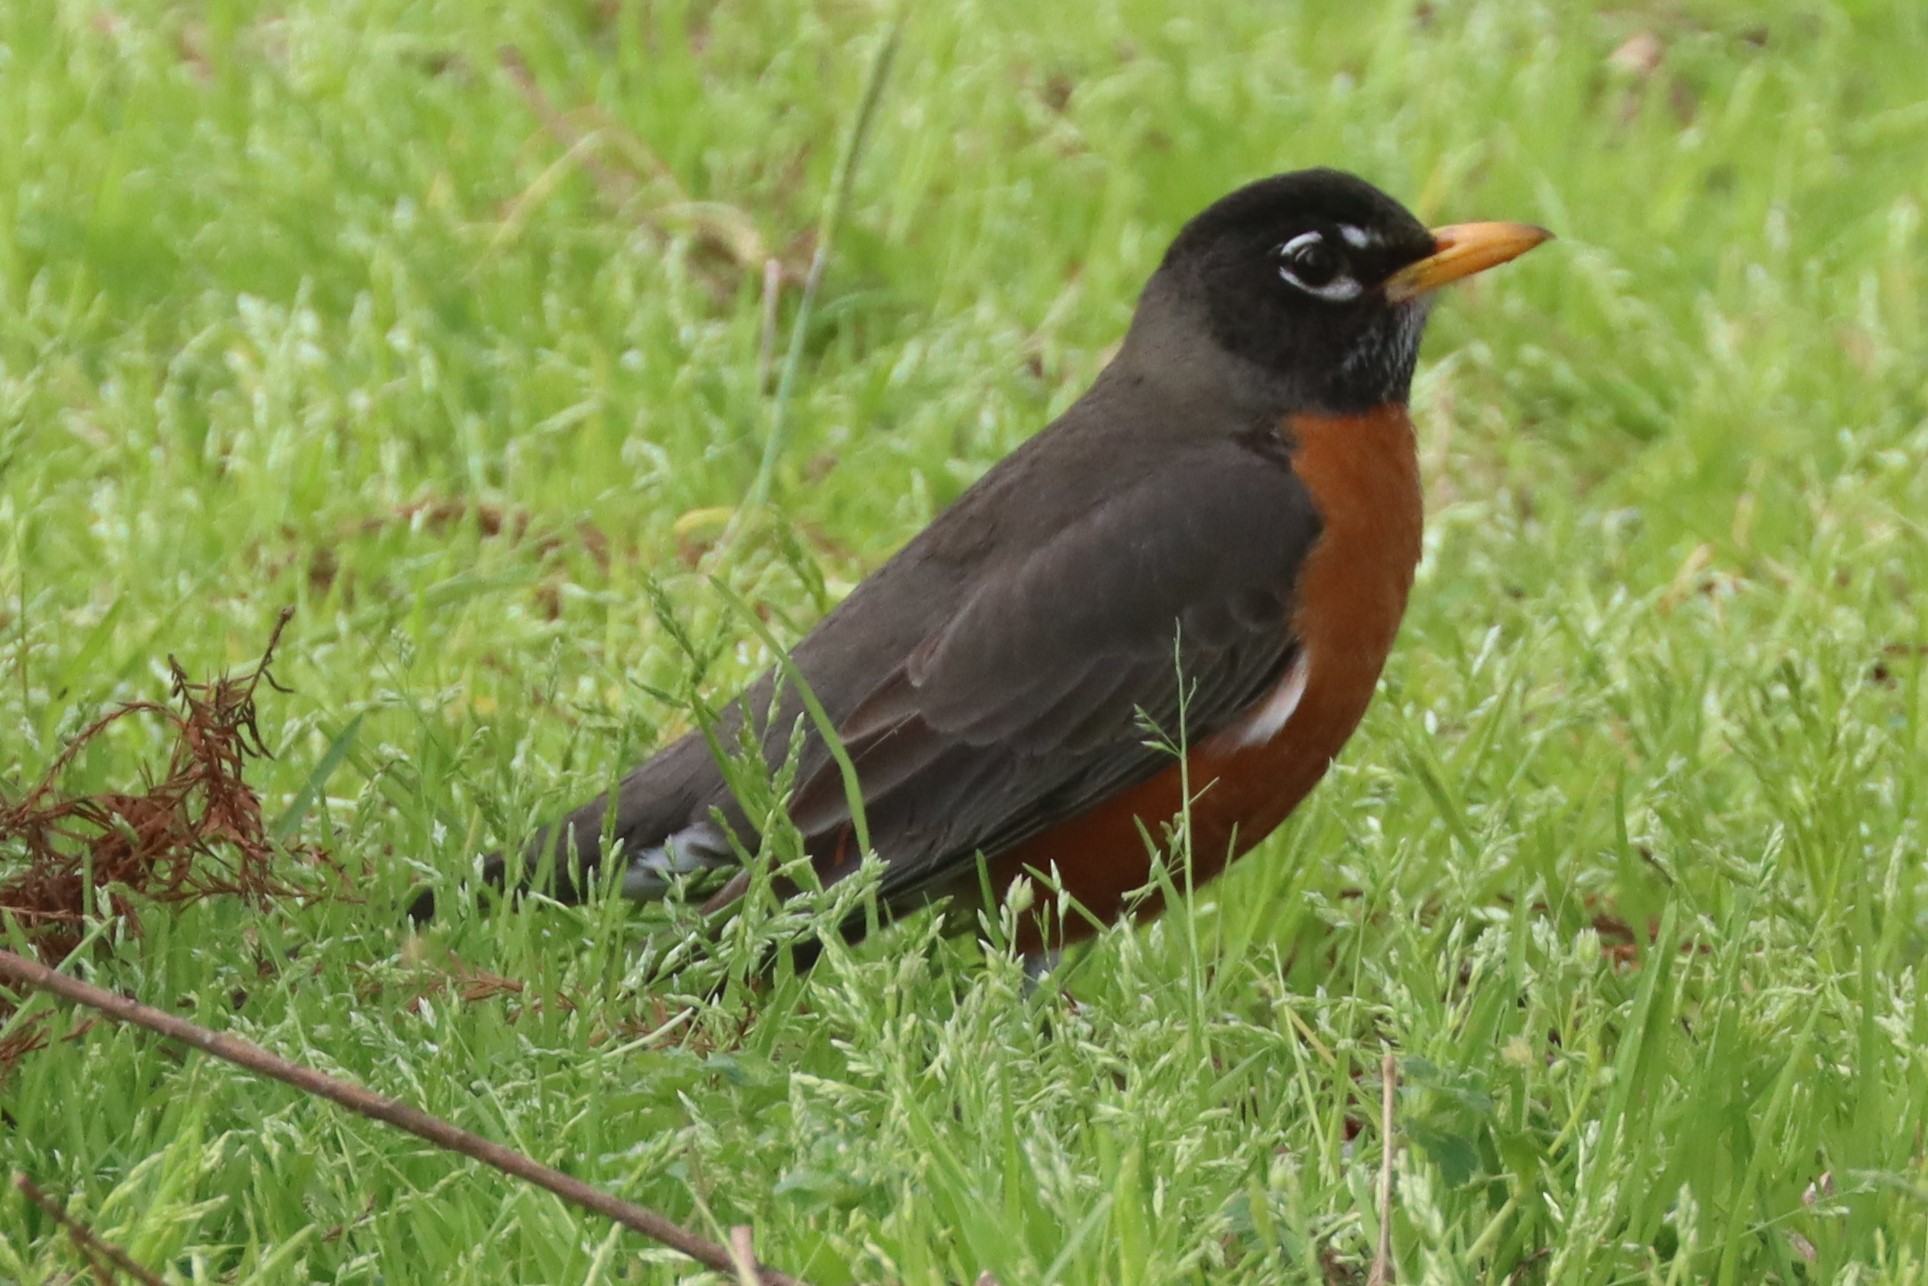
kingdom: Animalia
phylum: Chordata
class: Aves
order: Passeriformes
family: Turdidae
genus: Turdus
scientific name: Turdus migratorius
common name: American robin
